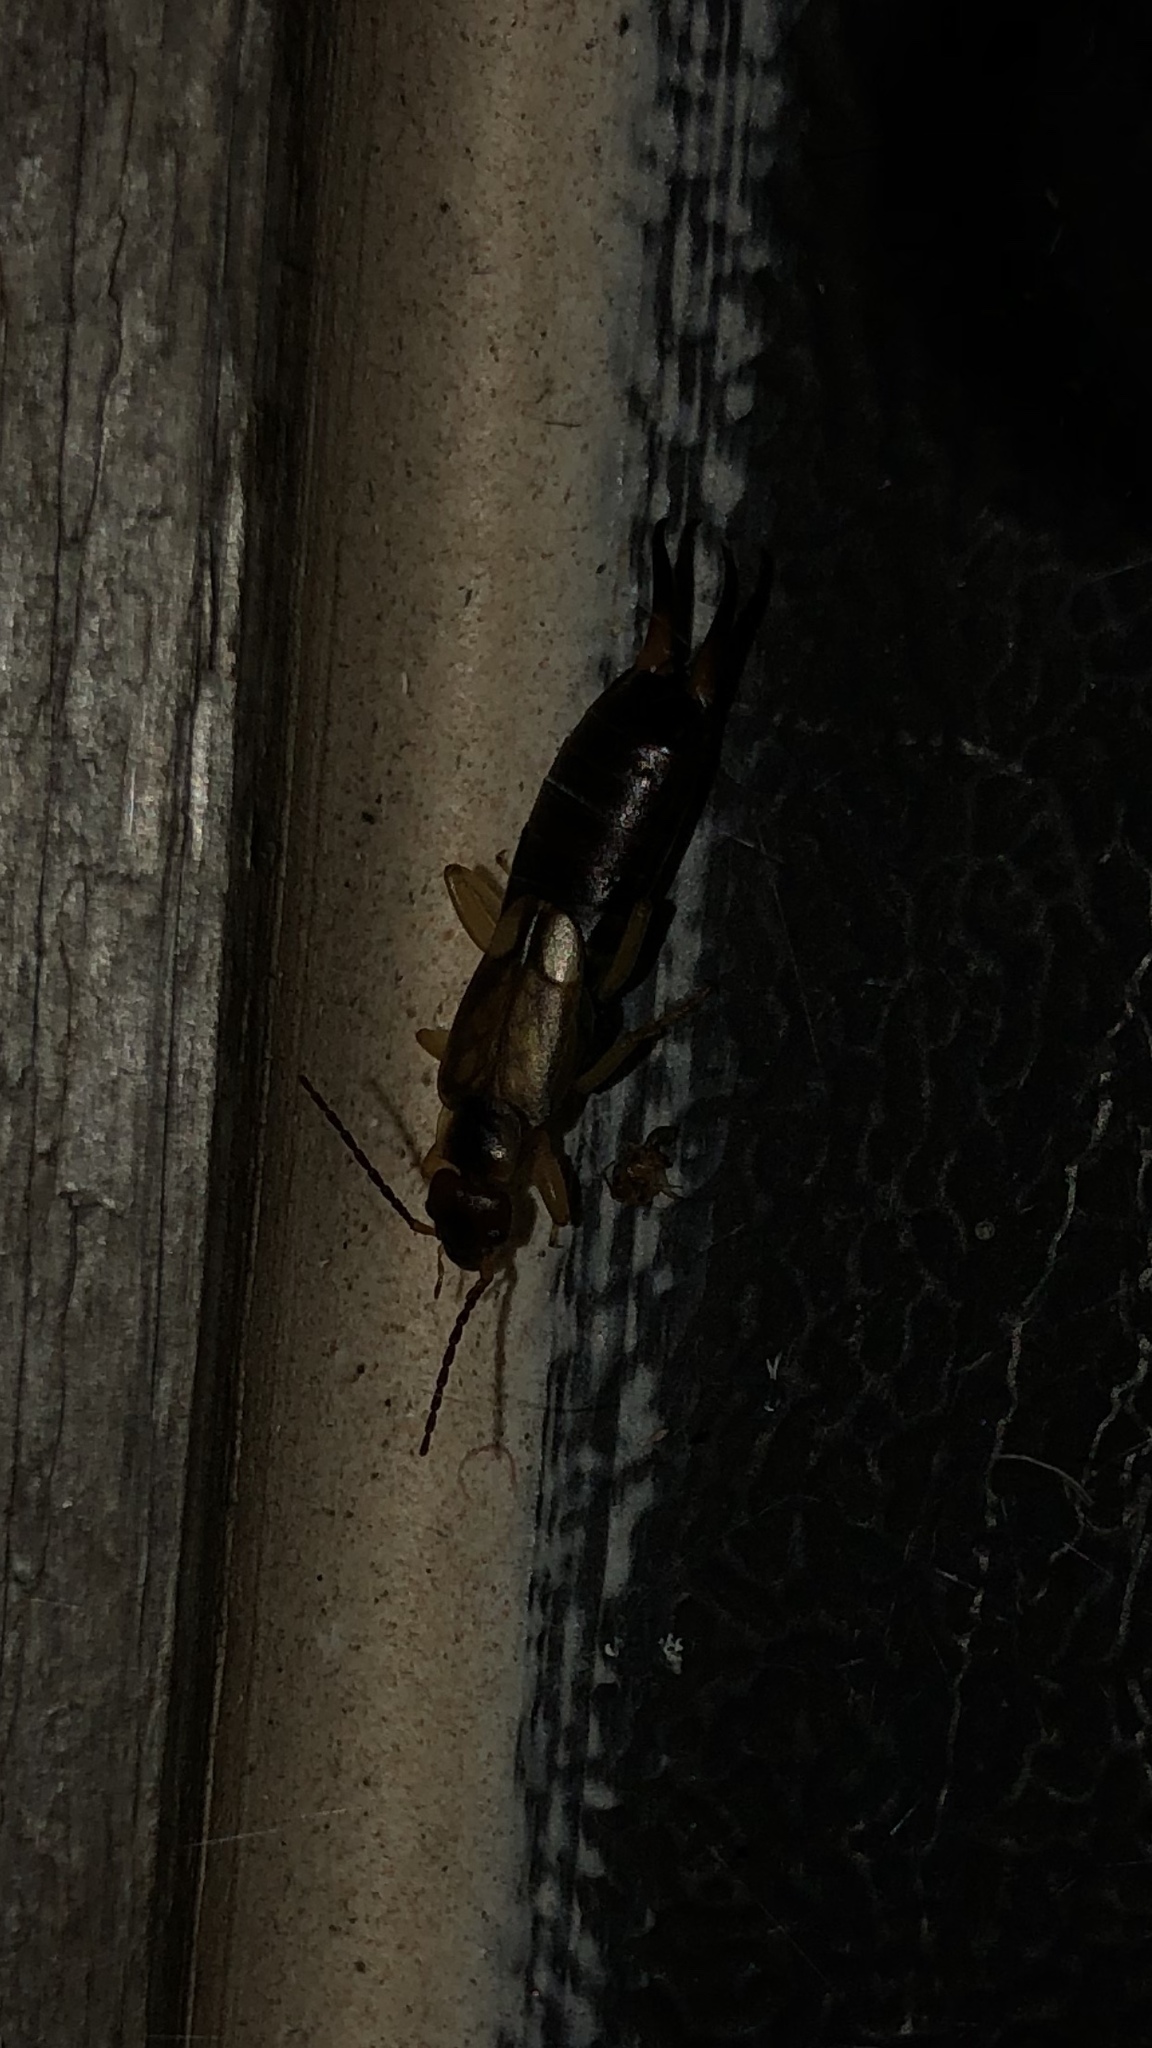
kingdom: Animalia
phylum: Arthropoda
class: Insecta
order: Dermaptera
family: Forficulidae
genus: Forficula
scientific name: Forficula
